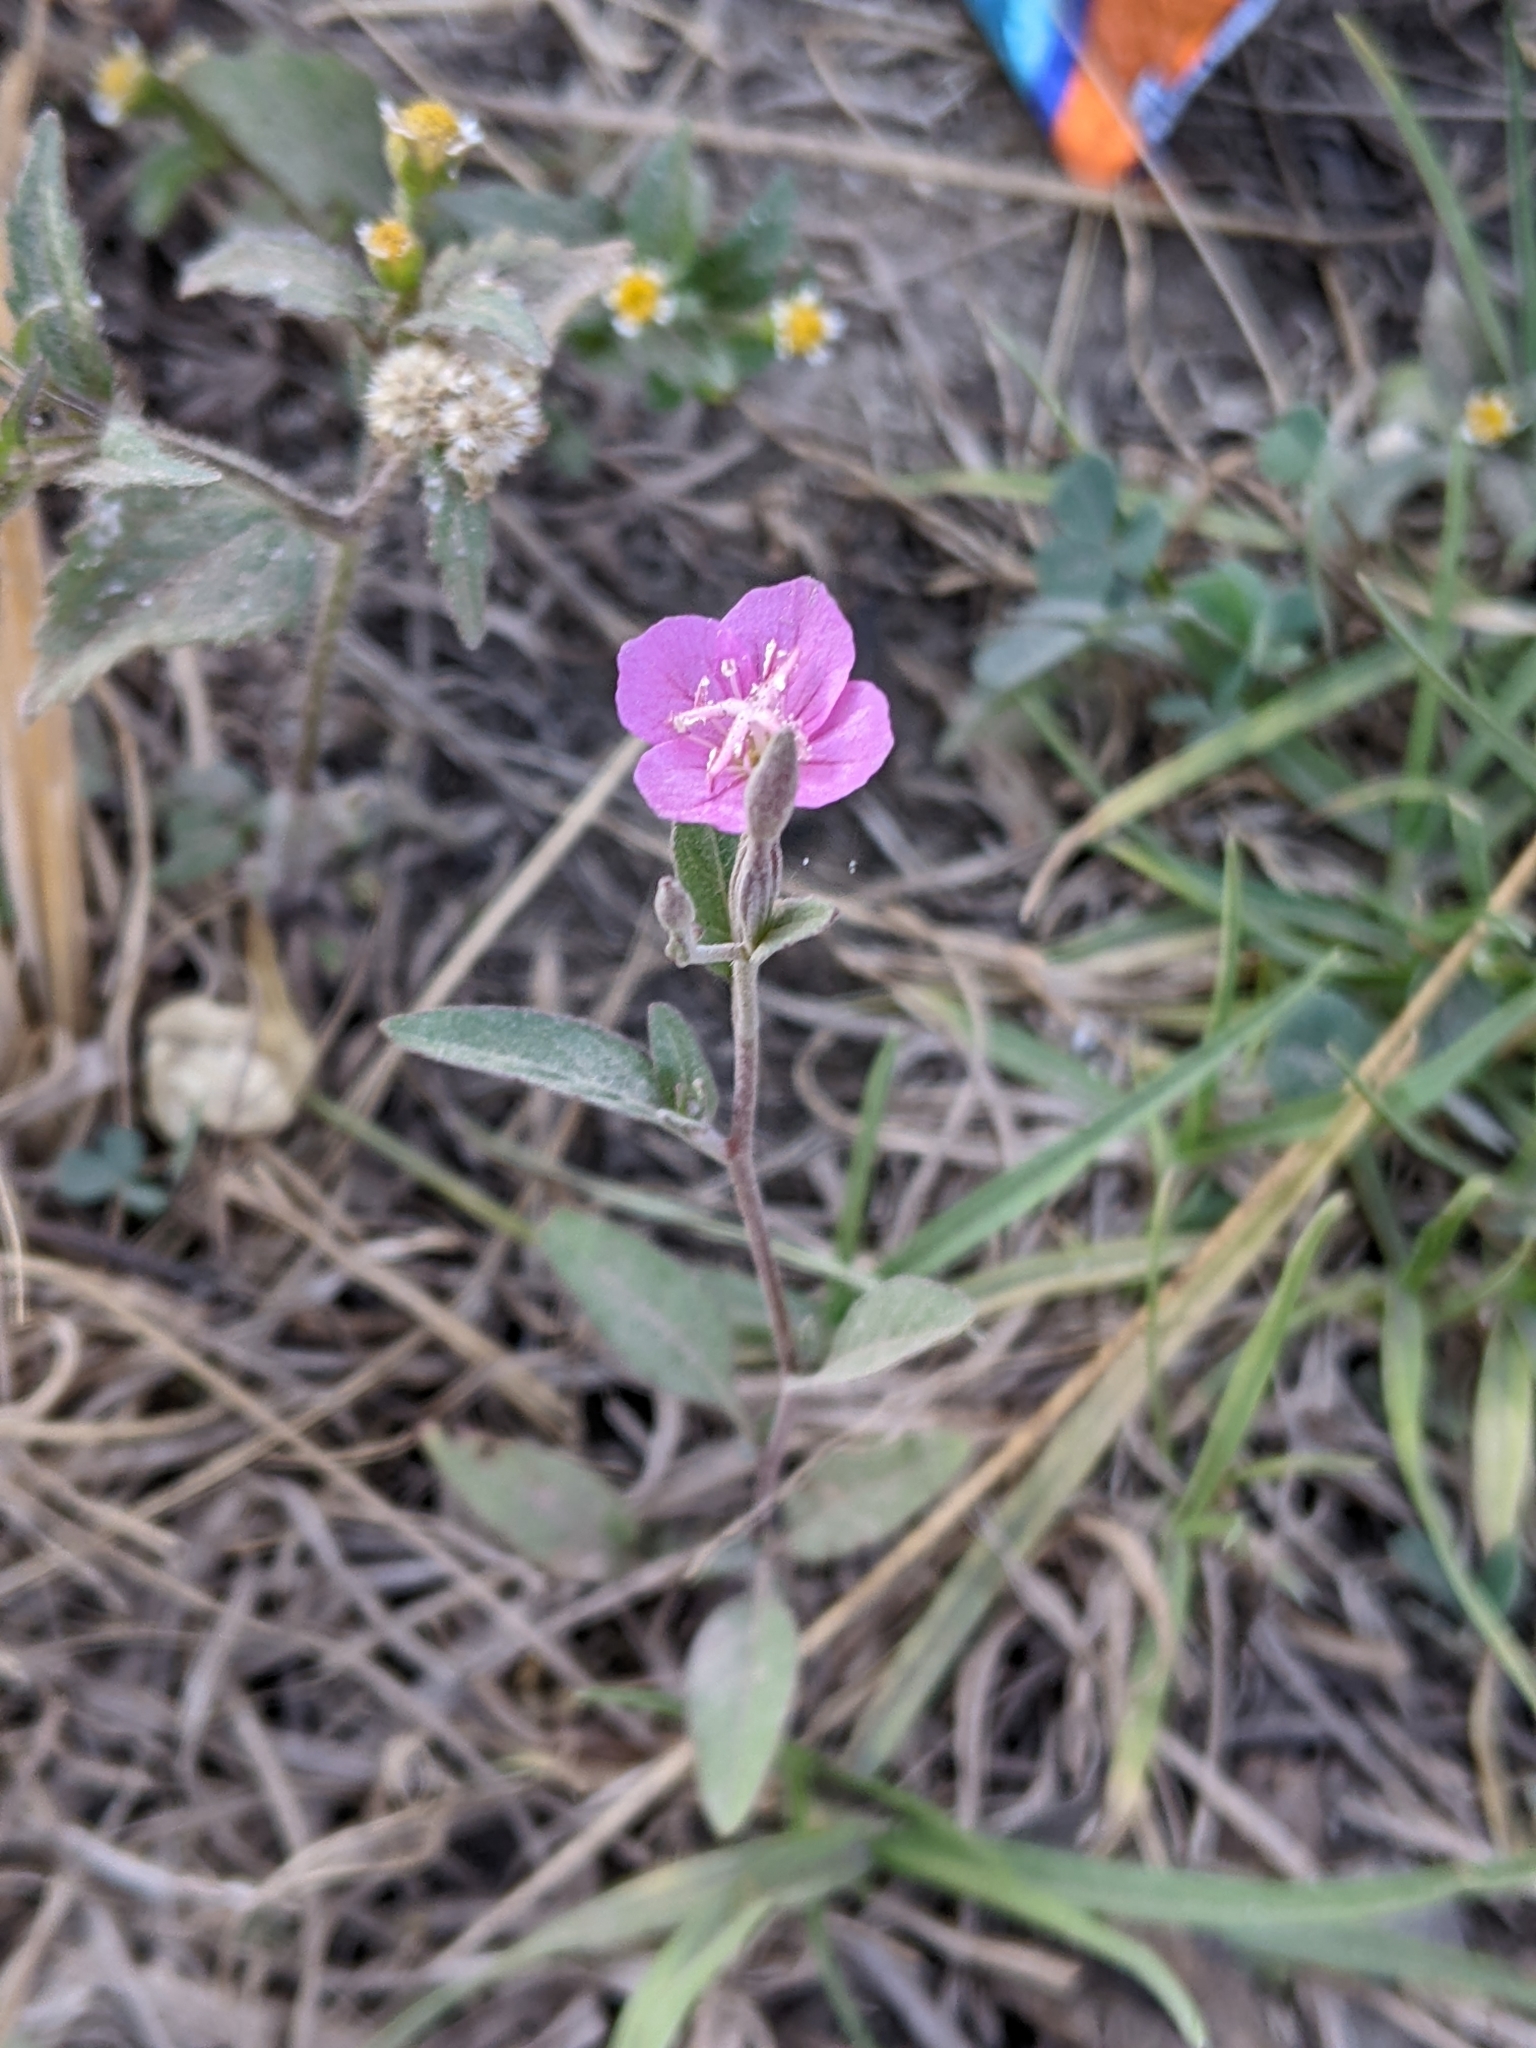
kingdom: Plantae
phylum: Tracheophyta
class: Magnoliopsida
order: Myrtales
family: Onagraceae
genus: Oenothera
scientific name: Oenothera rosea
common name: Rosy evening-primrose
